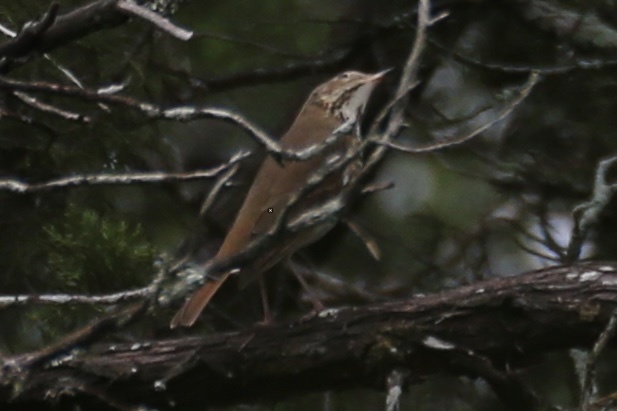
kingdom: Animalia
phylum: Chordata
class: Aves
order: Passeriformes
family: Turdidae
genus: Catharus
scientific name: Catharus guttatus
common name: Hermit thrush
